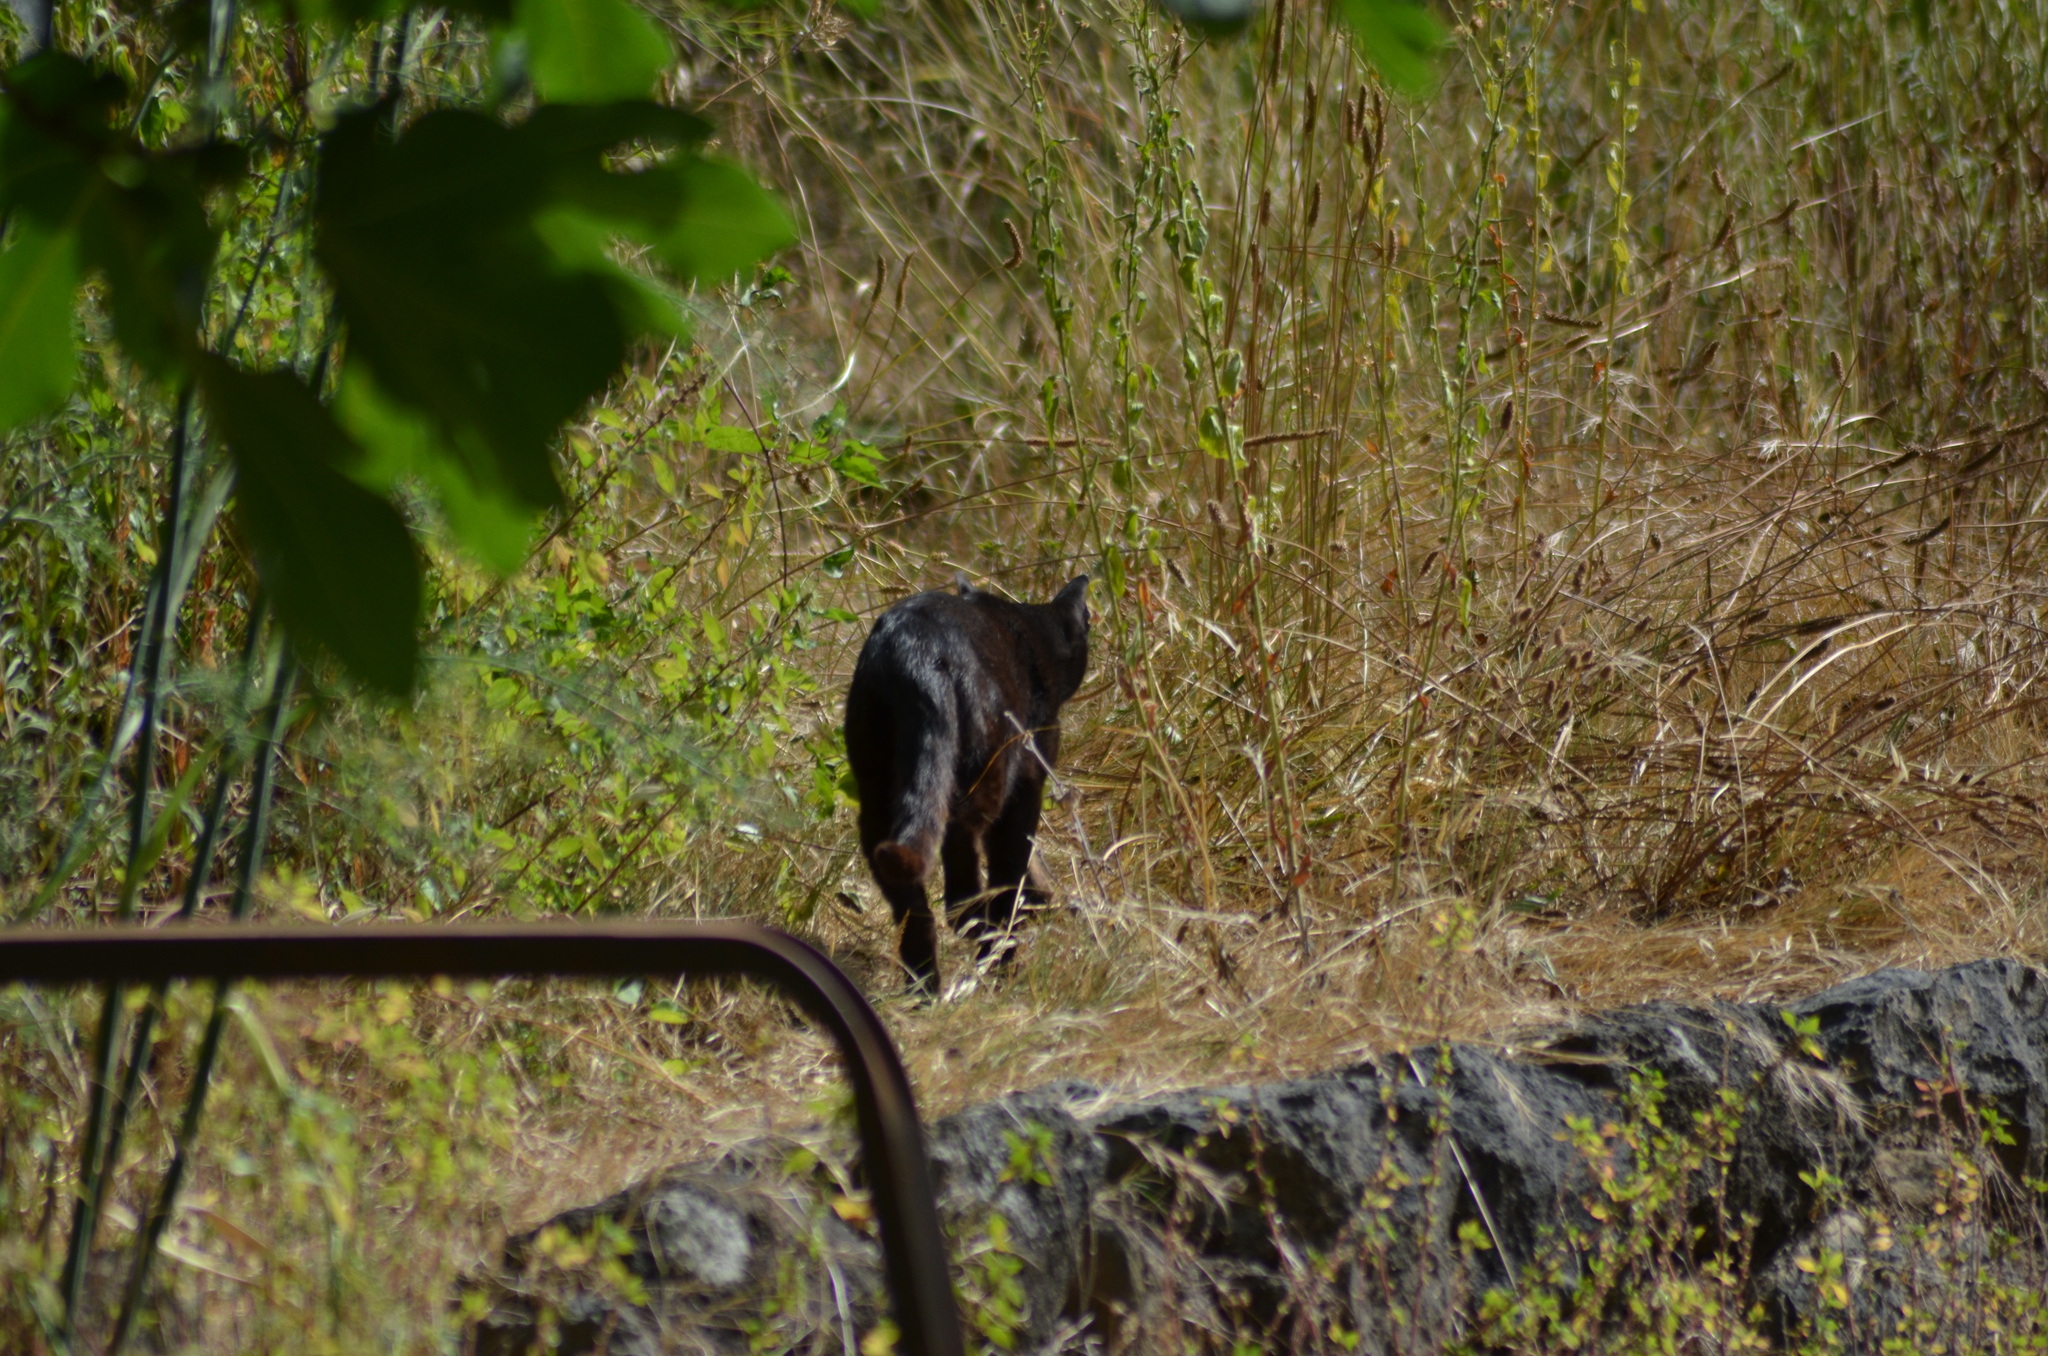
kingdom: Animalia
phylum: Chordata
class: Mammalia
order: Carnivora
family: Felidae
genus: Felis
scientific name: Felis catus
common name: Domestic cat
